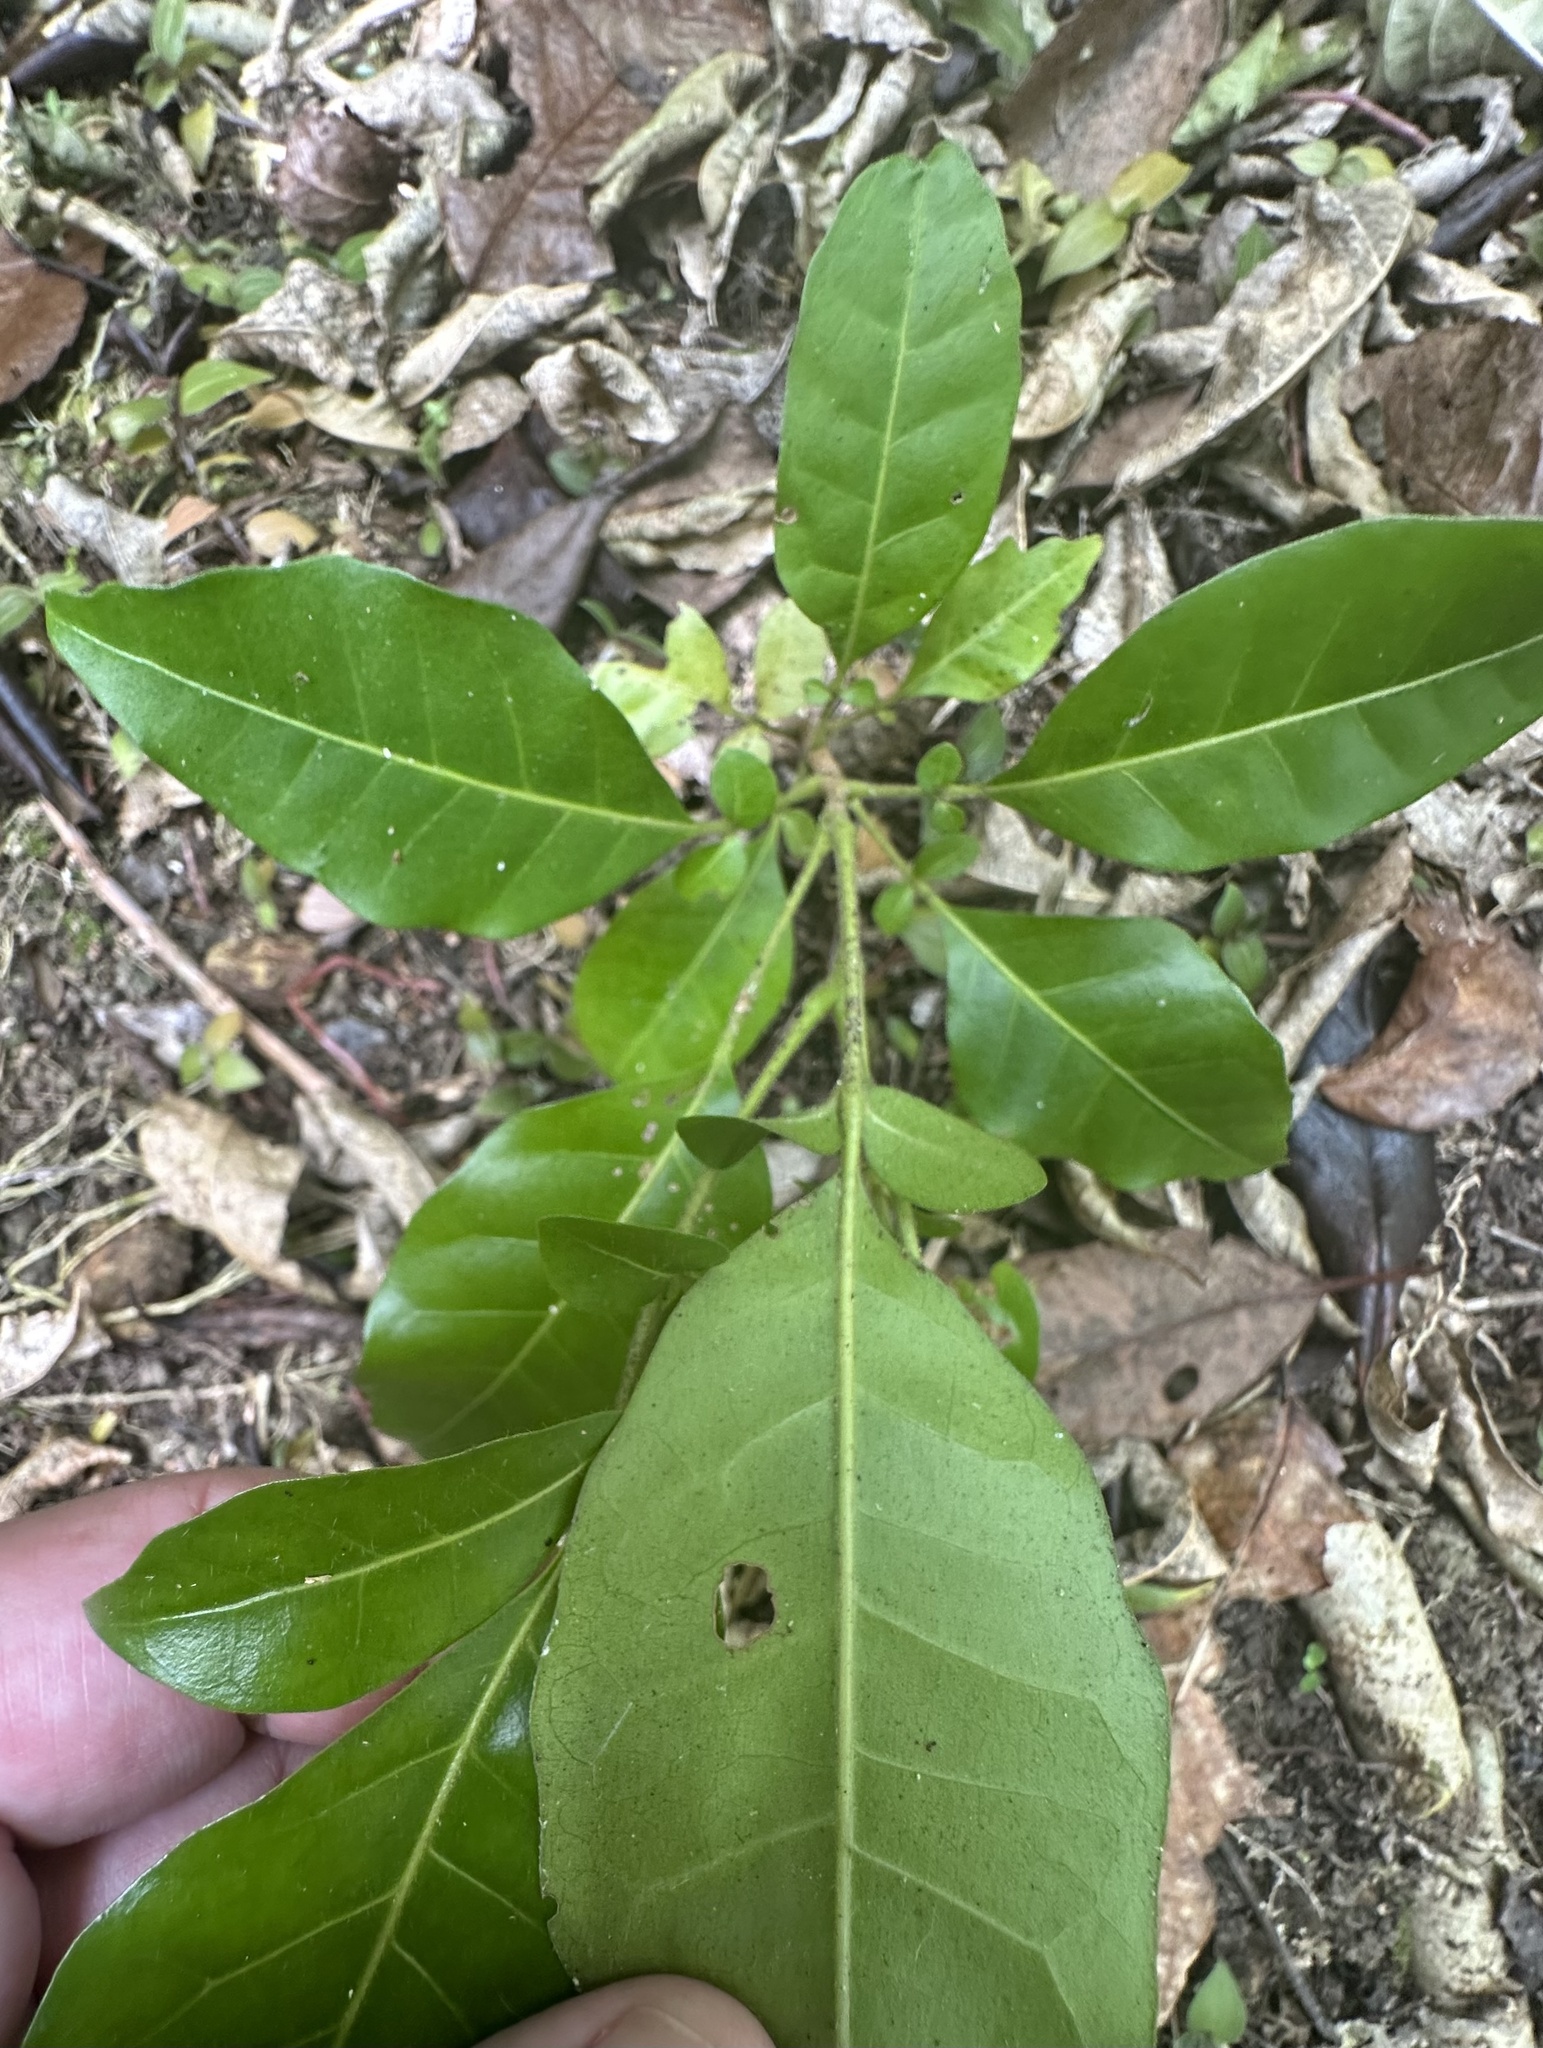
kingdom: Plantae
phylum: Tracheophyta
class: Magnoliopsida
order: Sapindales
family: Meliaceae
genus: Didymocheton
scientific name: Didymocheton spectabilis
